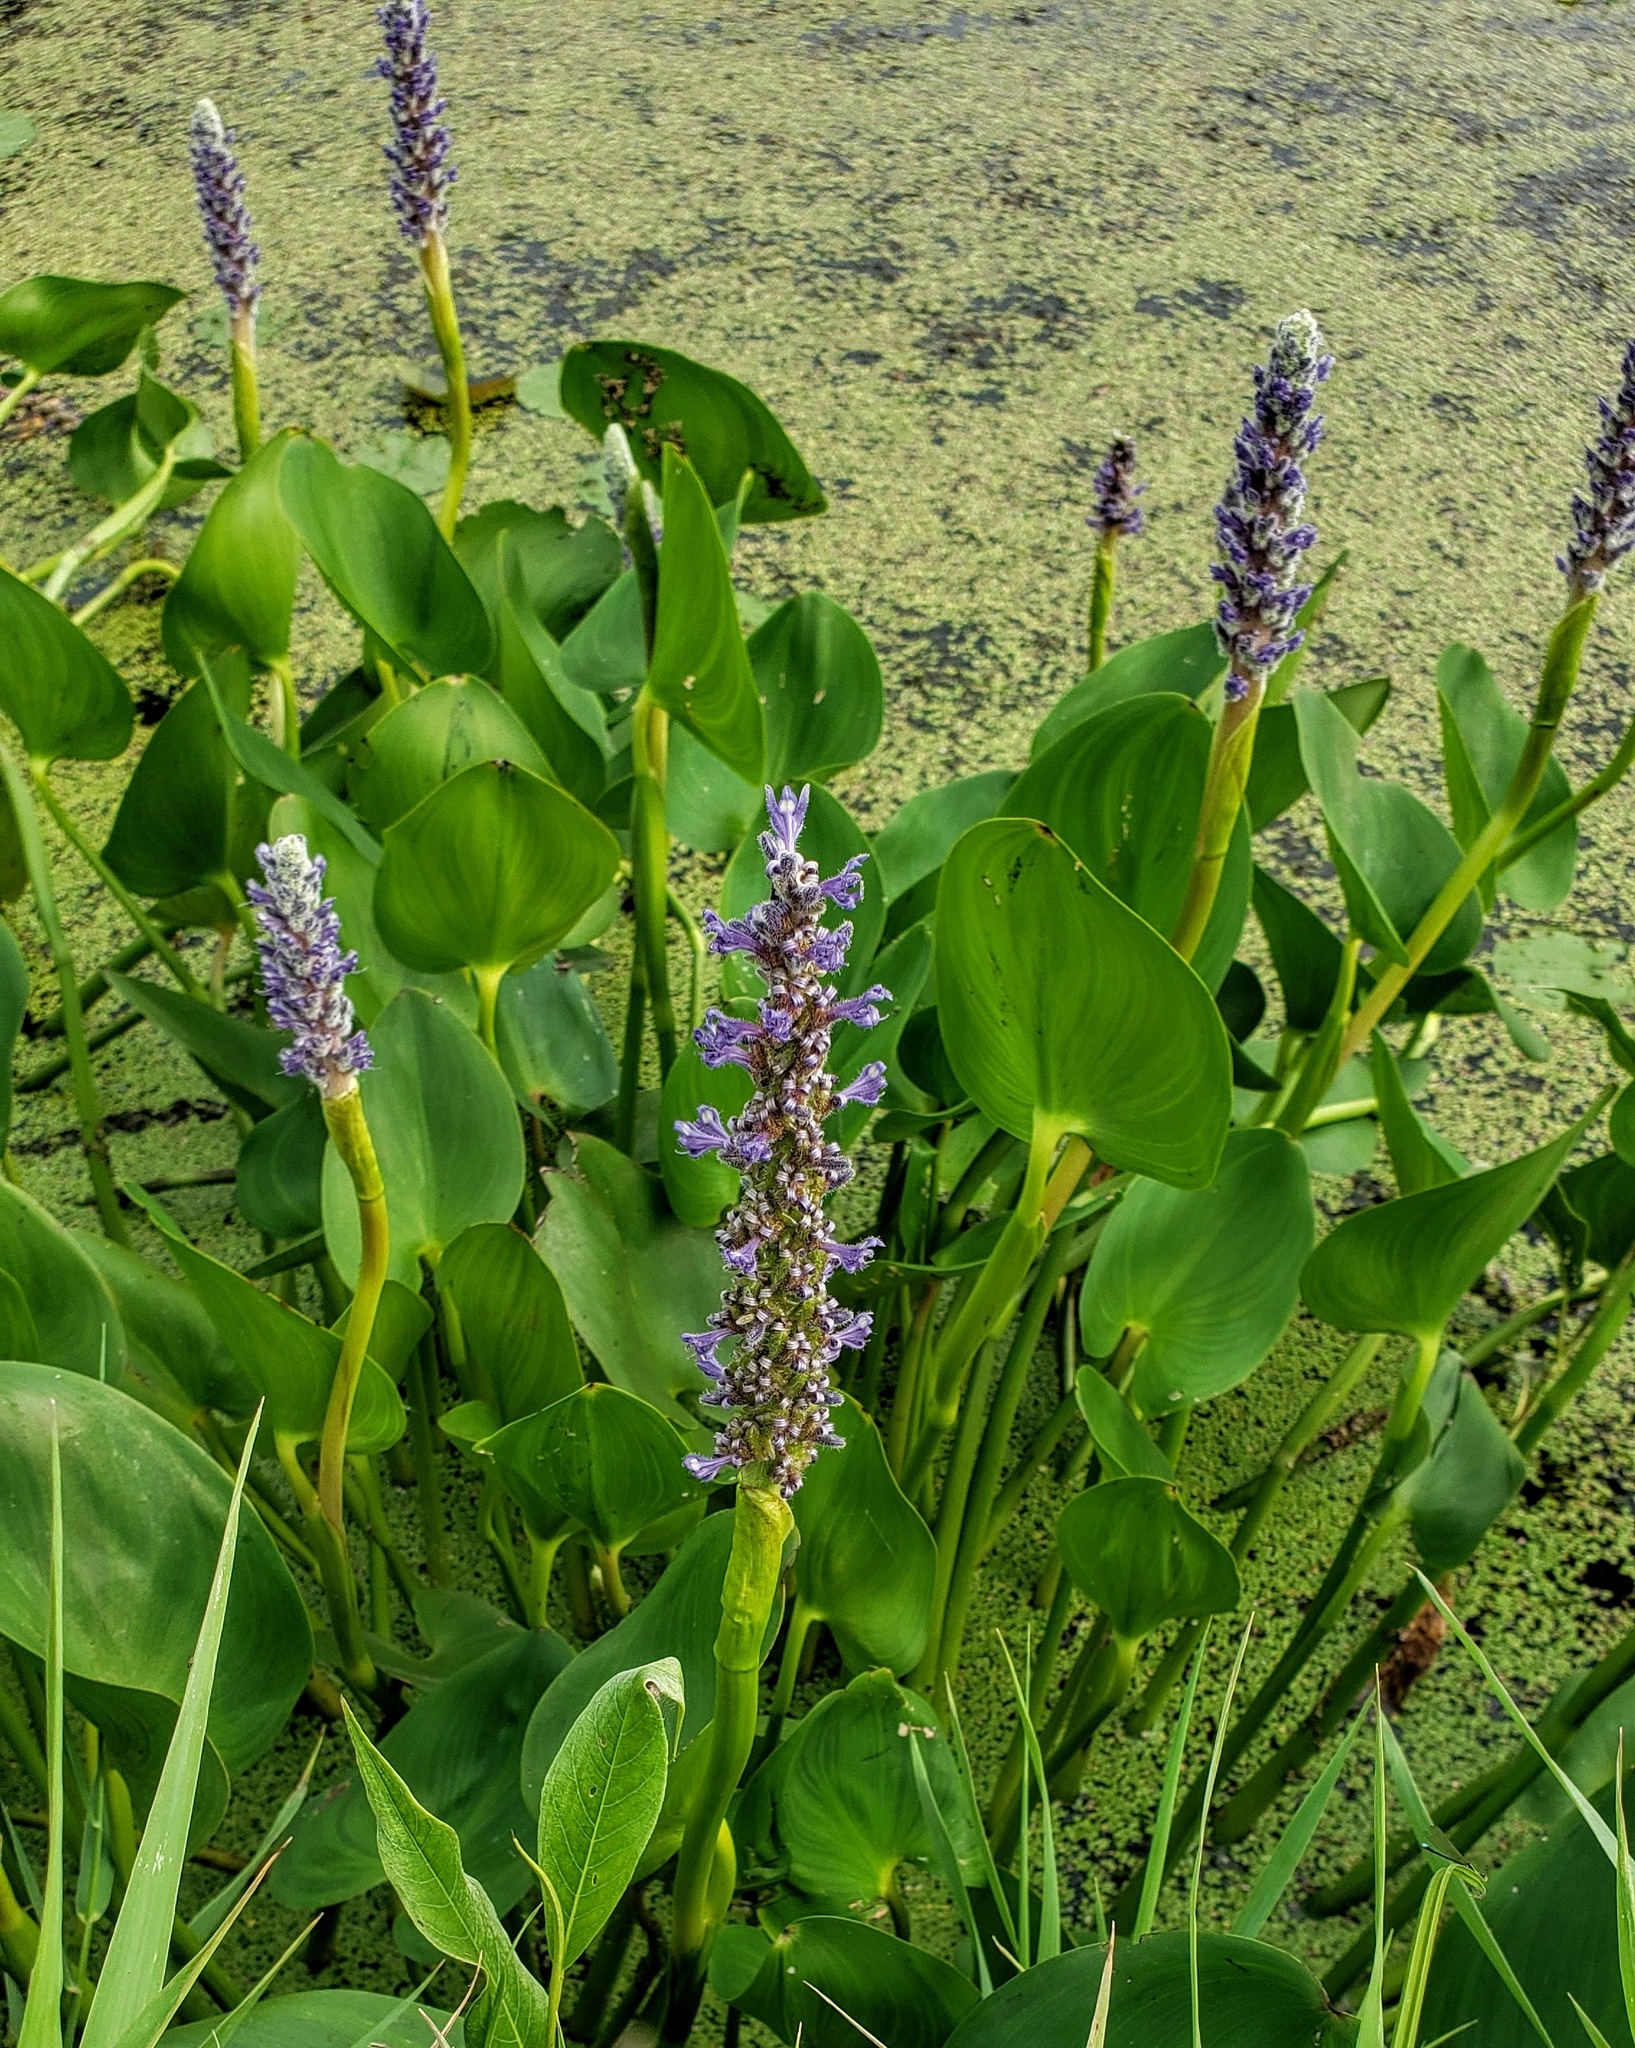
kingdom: Plantae
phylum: Tracheophyta
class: Liliopsida
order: Commelinales
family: Pontederiaceae
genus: Pontederia
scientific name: Pontederia cordata
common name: Pickerelweed
